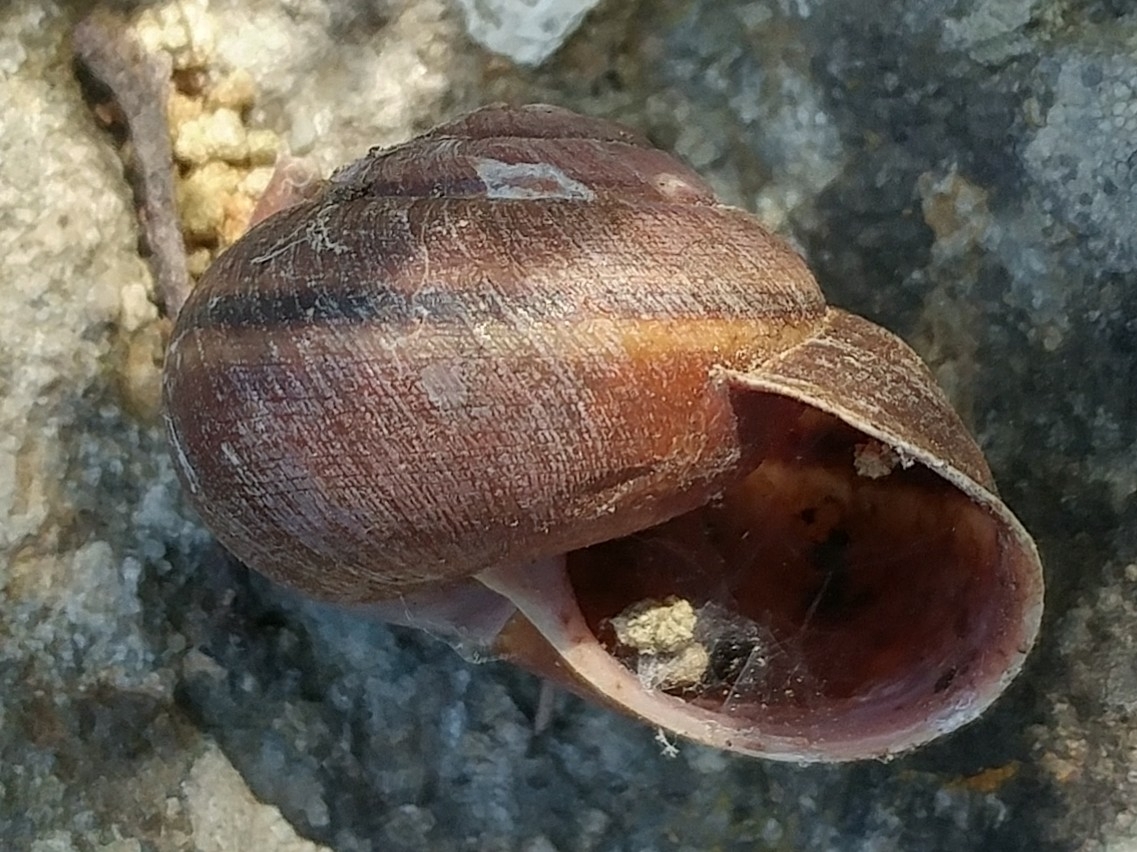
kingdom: Animalia
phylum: Mollusca
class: Gastropoda
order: Stylommatophora
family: Xanthonychidae
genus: Helminthoglypta
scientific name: Helminthoglypta ayresiana
